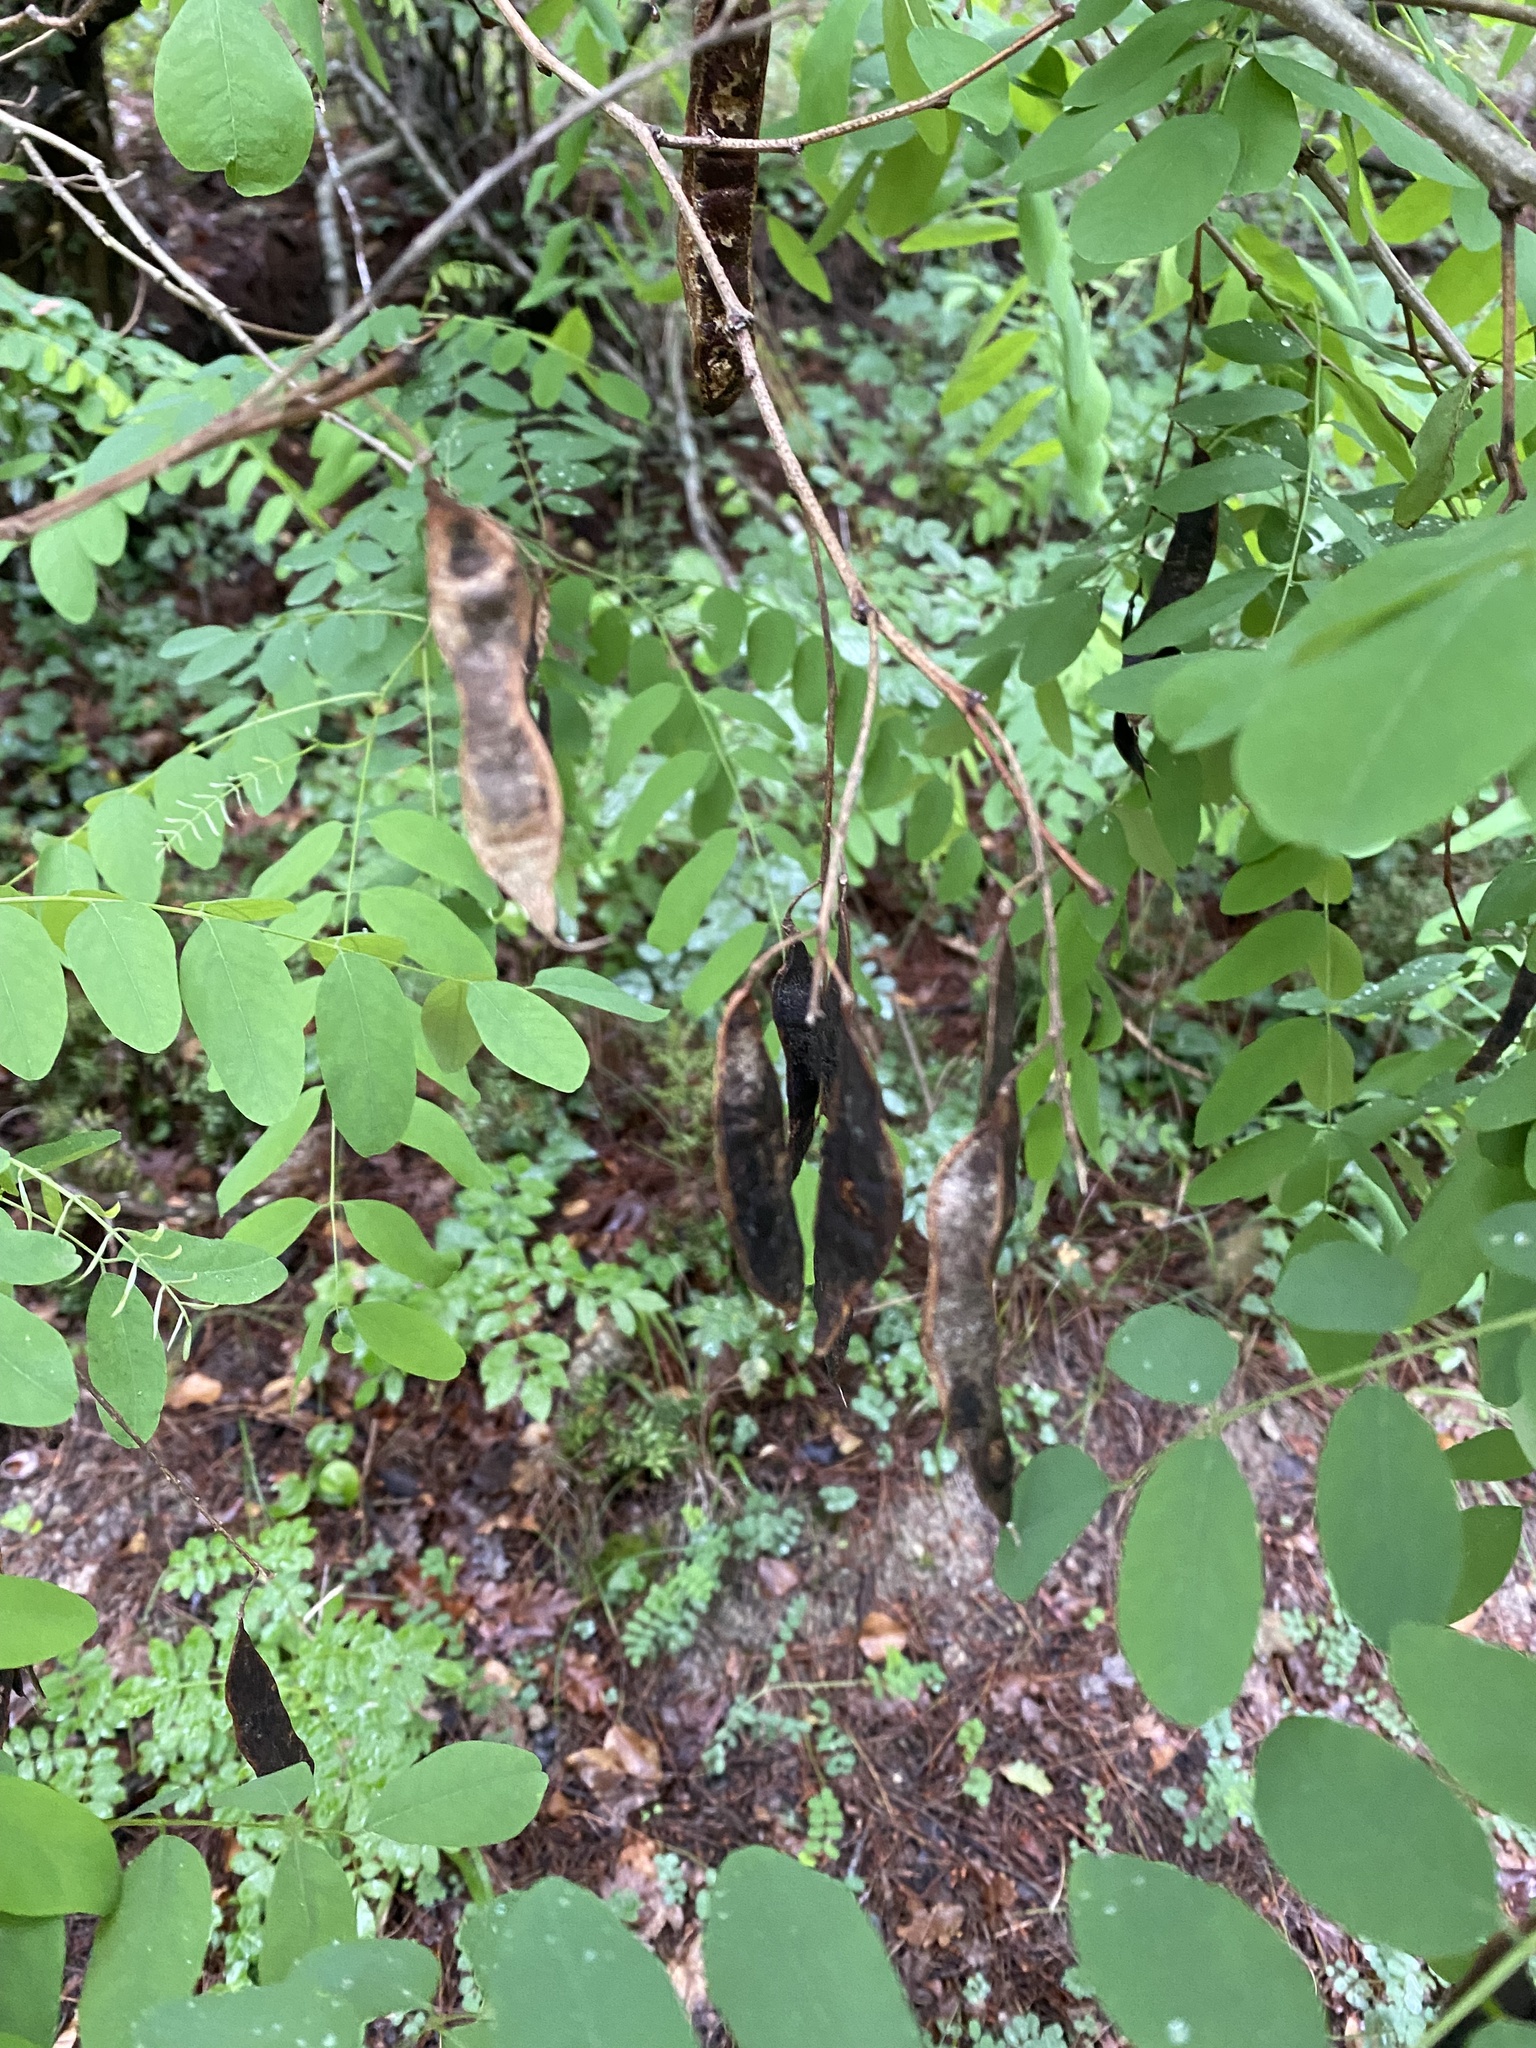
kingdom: Plantae
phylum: Tracheophyta
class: Magnoliopsida
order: Fabales
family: Fabaceae
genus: Robinia
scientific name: Robinia pseudoacacia
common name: Black locust
